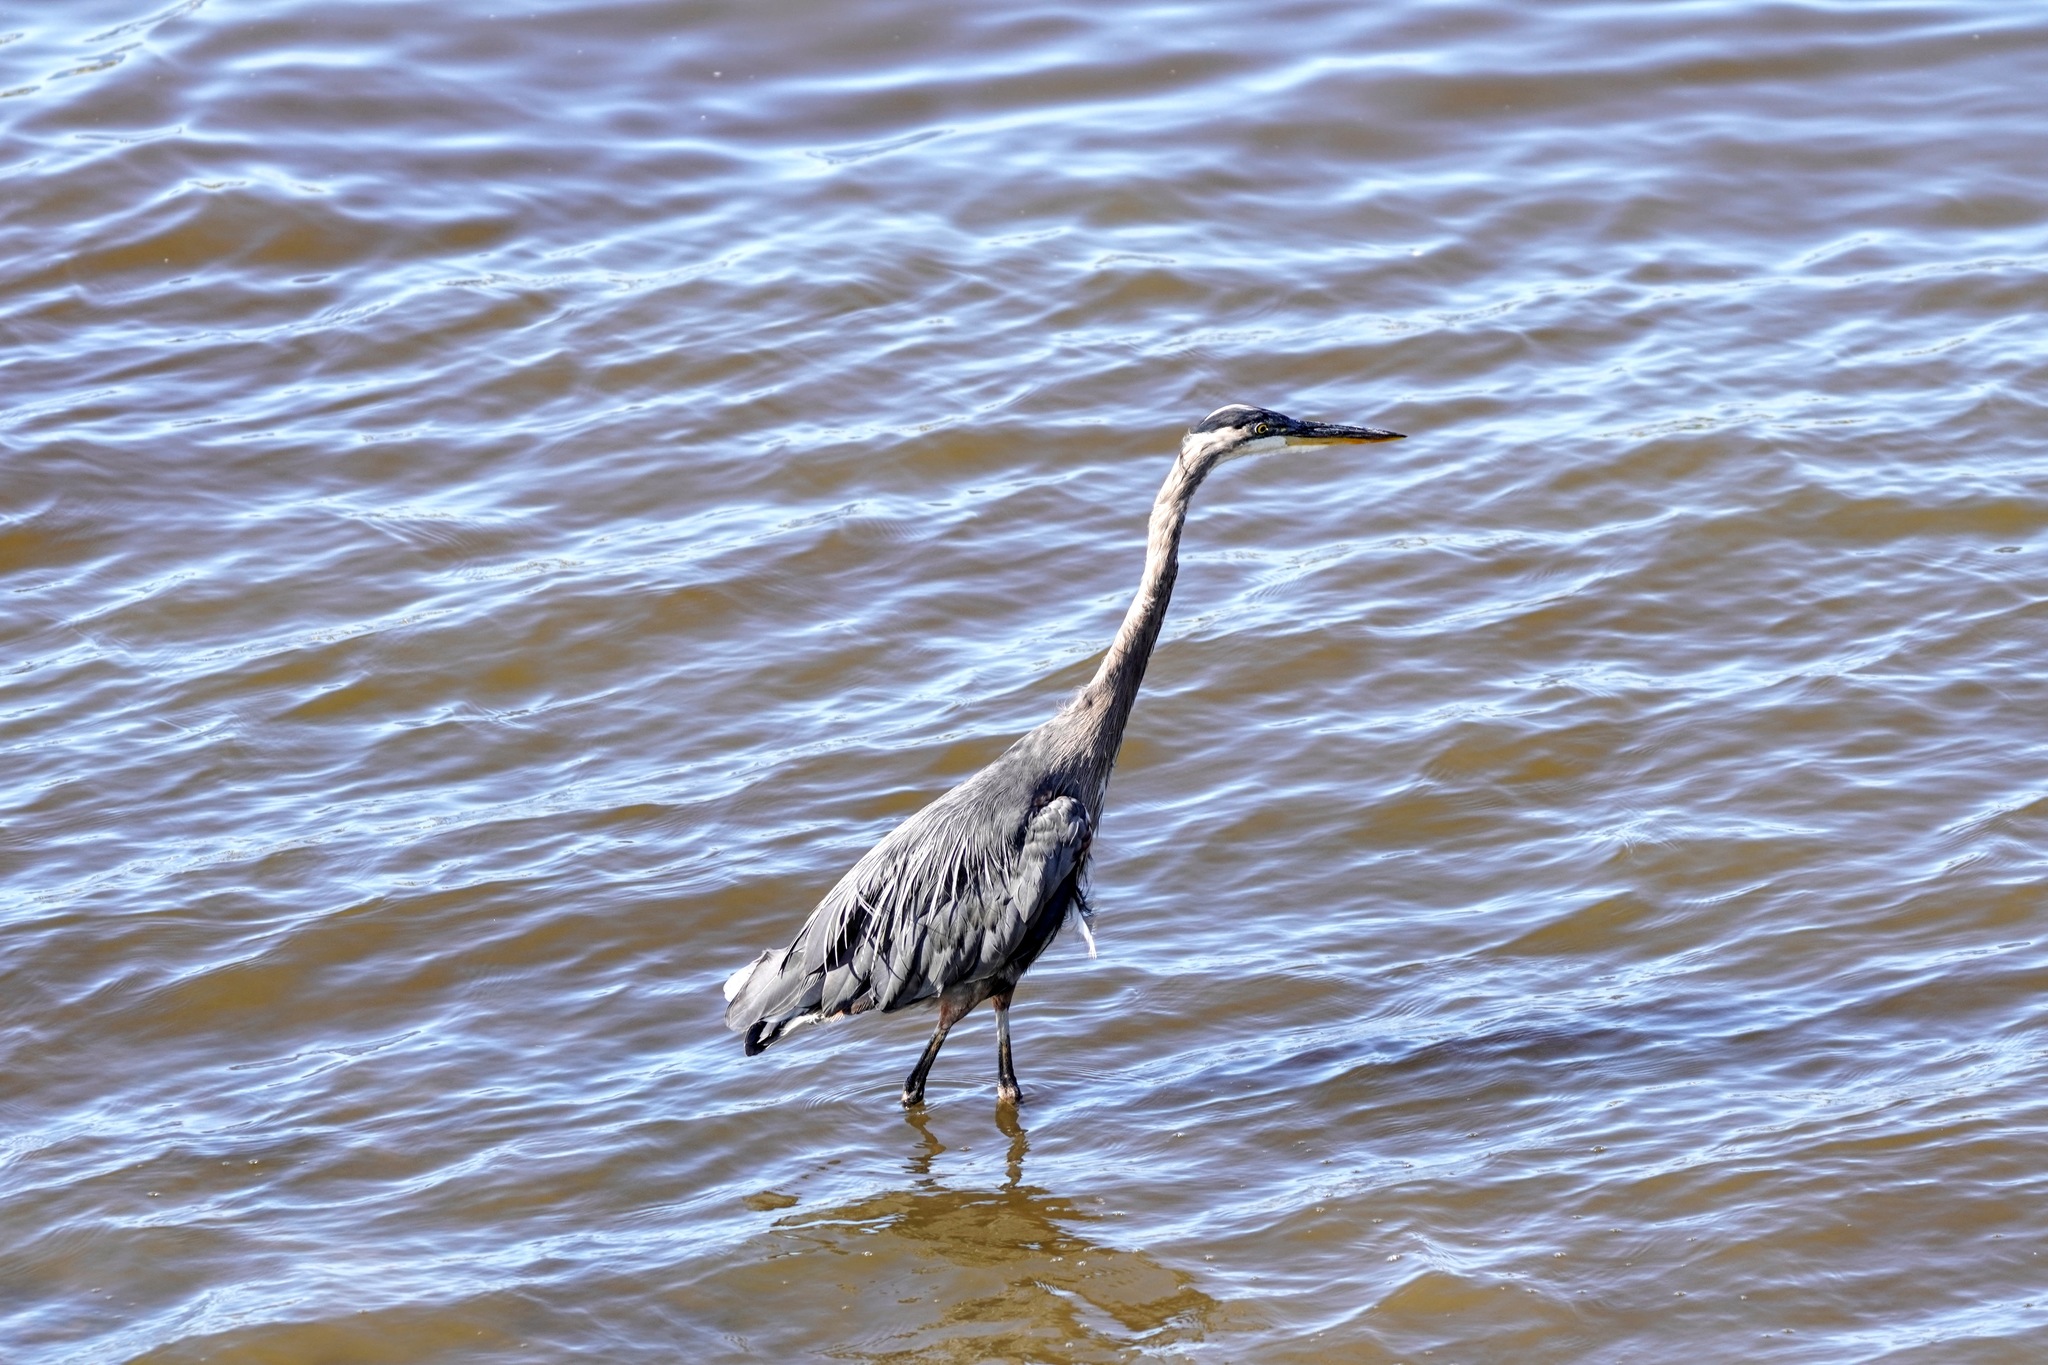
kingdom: Animalia
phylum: Chordata
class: Aves
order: Pelecaniformes
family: Ardeidae
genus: Ardea
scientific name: Ardea herodias
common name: Great blue heron
